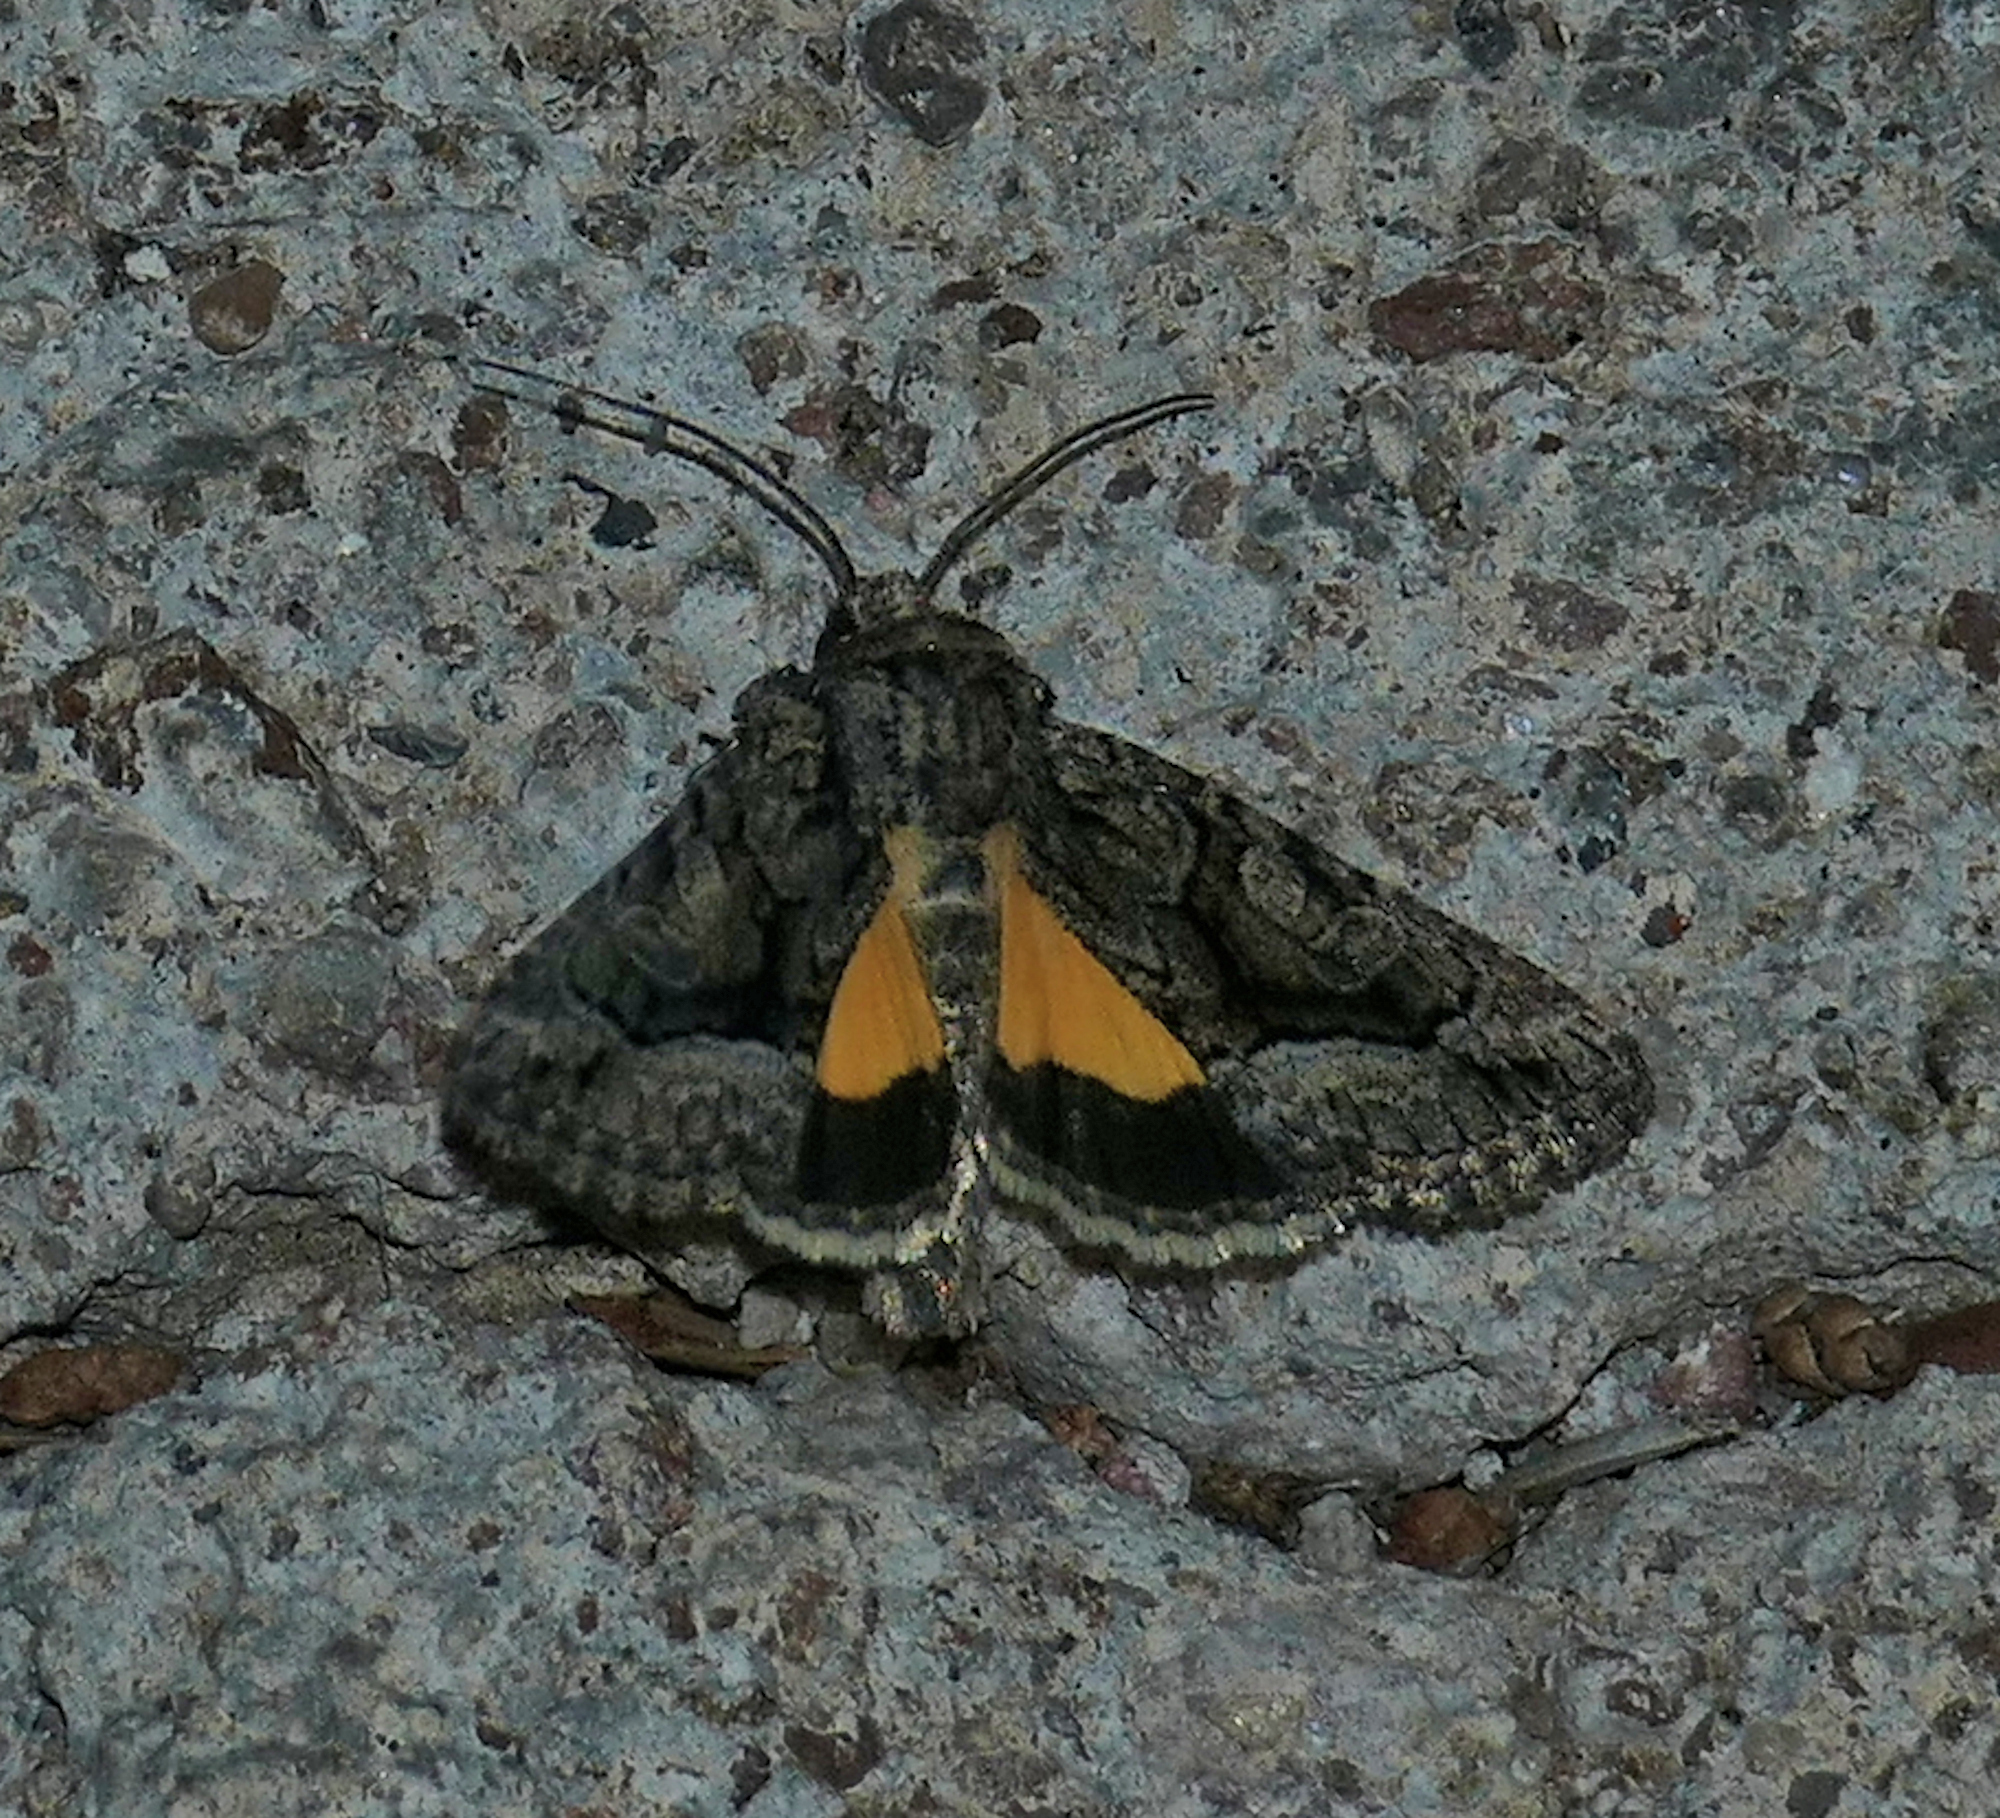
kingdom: Animalia
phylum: Arthropoda
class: Insecta
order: Lepidoptera
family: Noctuidae
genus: Pseudanarta
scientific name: Pseudanarta singula
